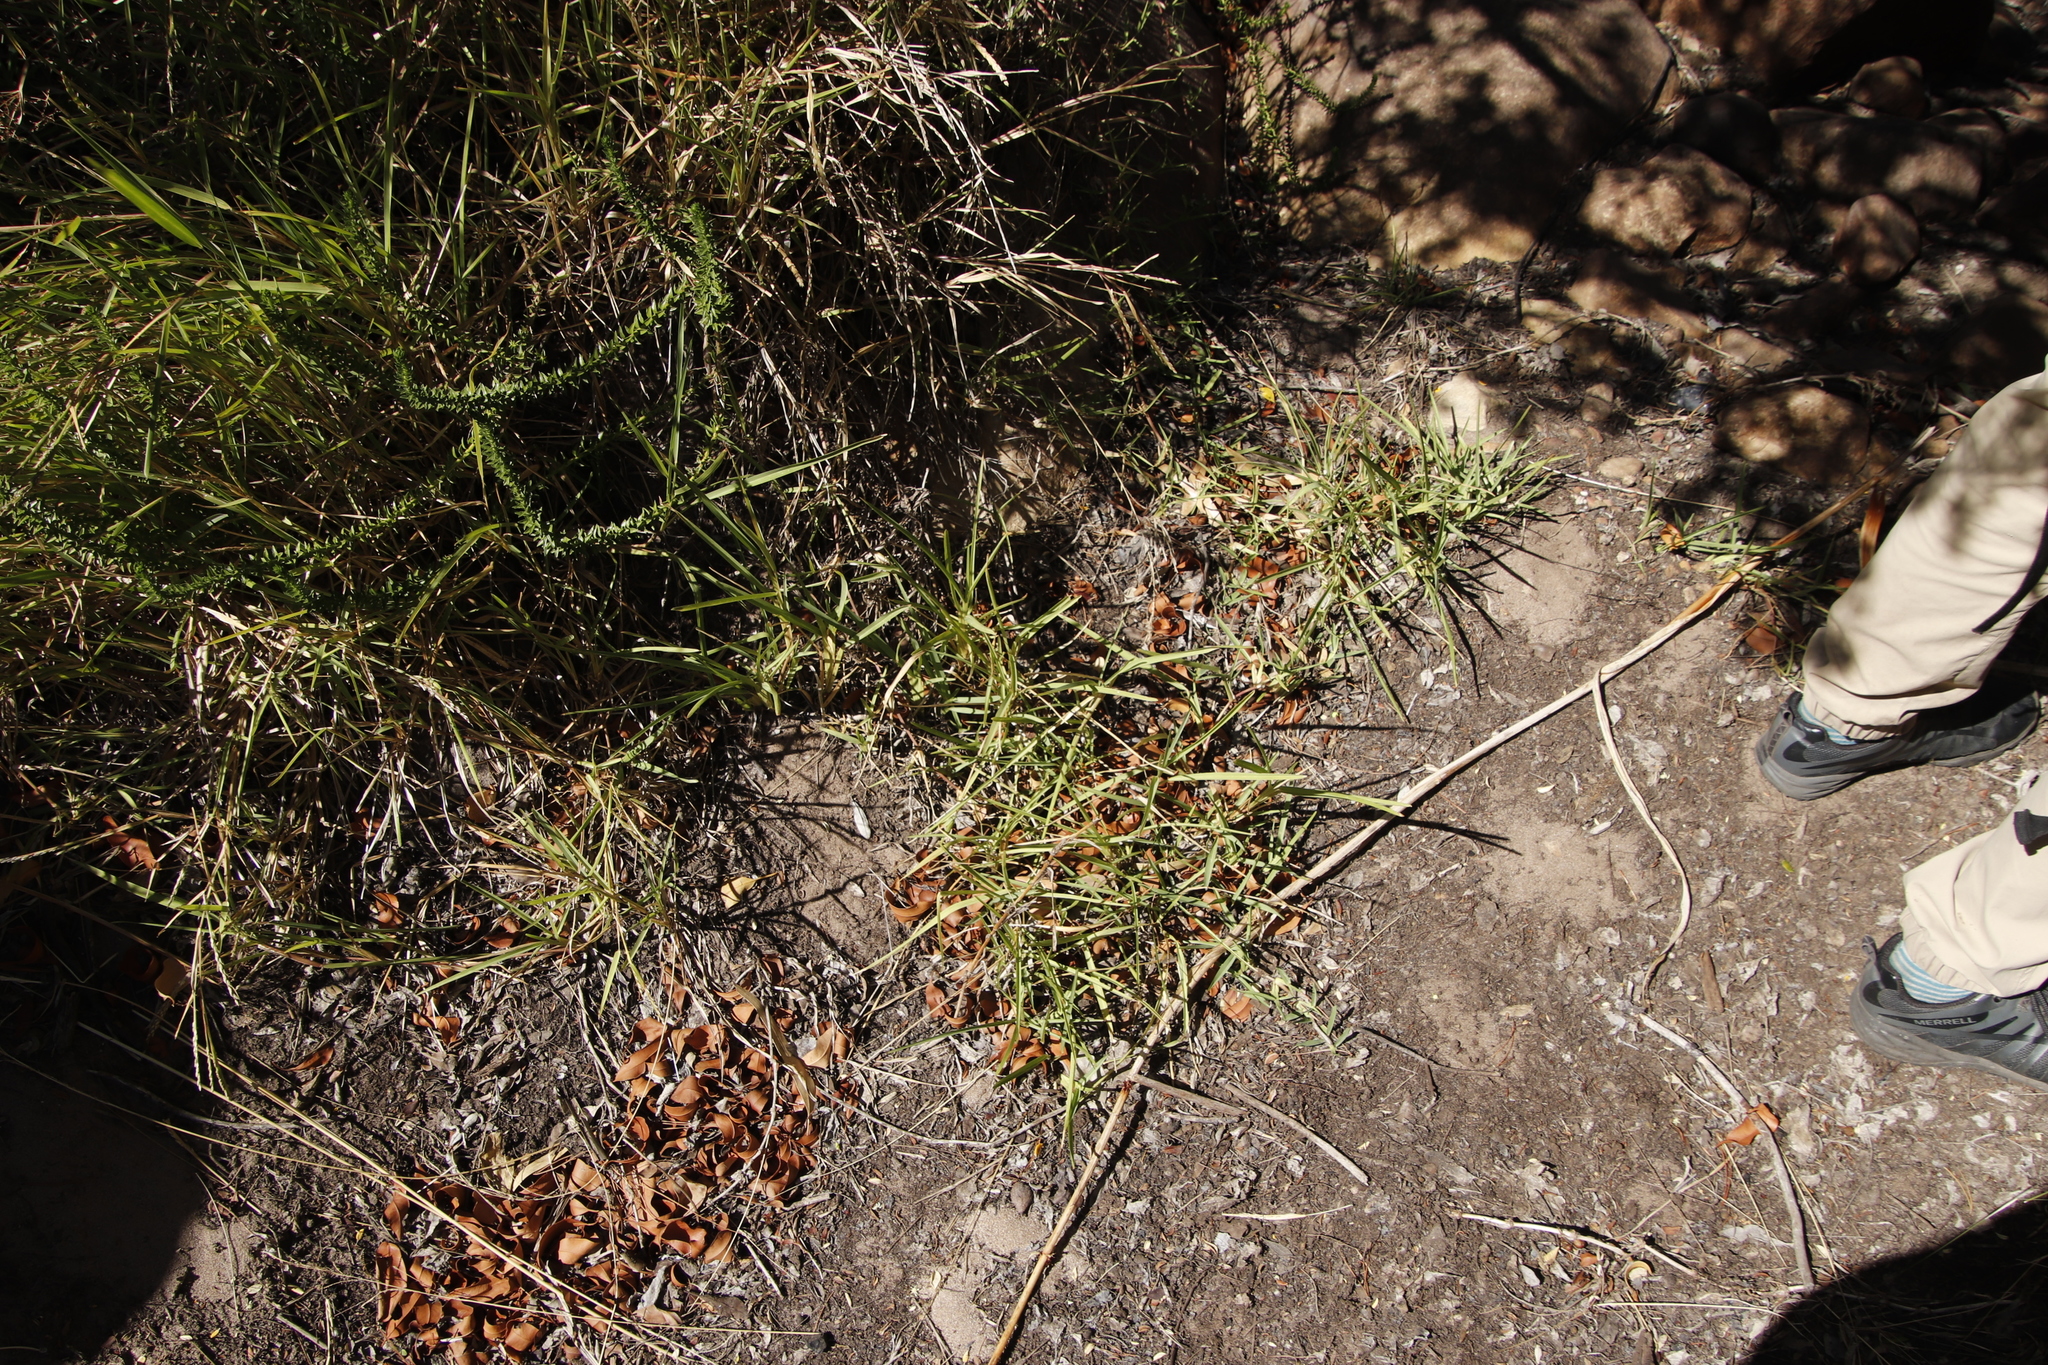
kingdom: Plantae
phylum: Tracheophyta
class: Liliopsida
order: Poales
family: Poaceae
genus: Stenotaphrum
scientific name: Stenotaphrum secundatum
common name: St. augustine grass
